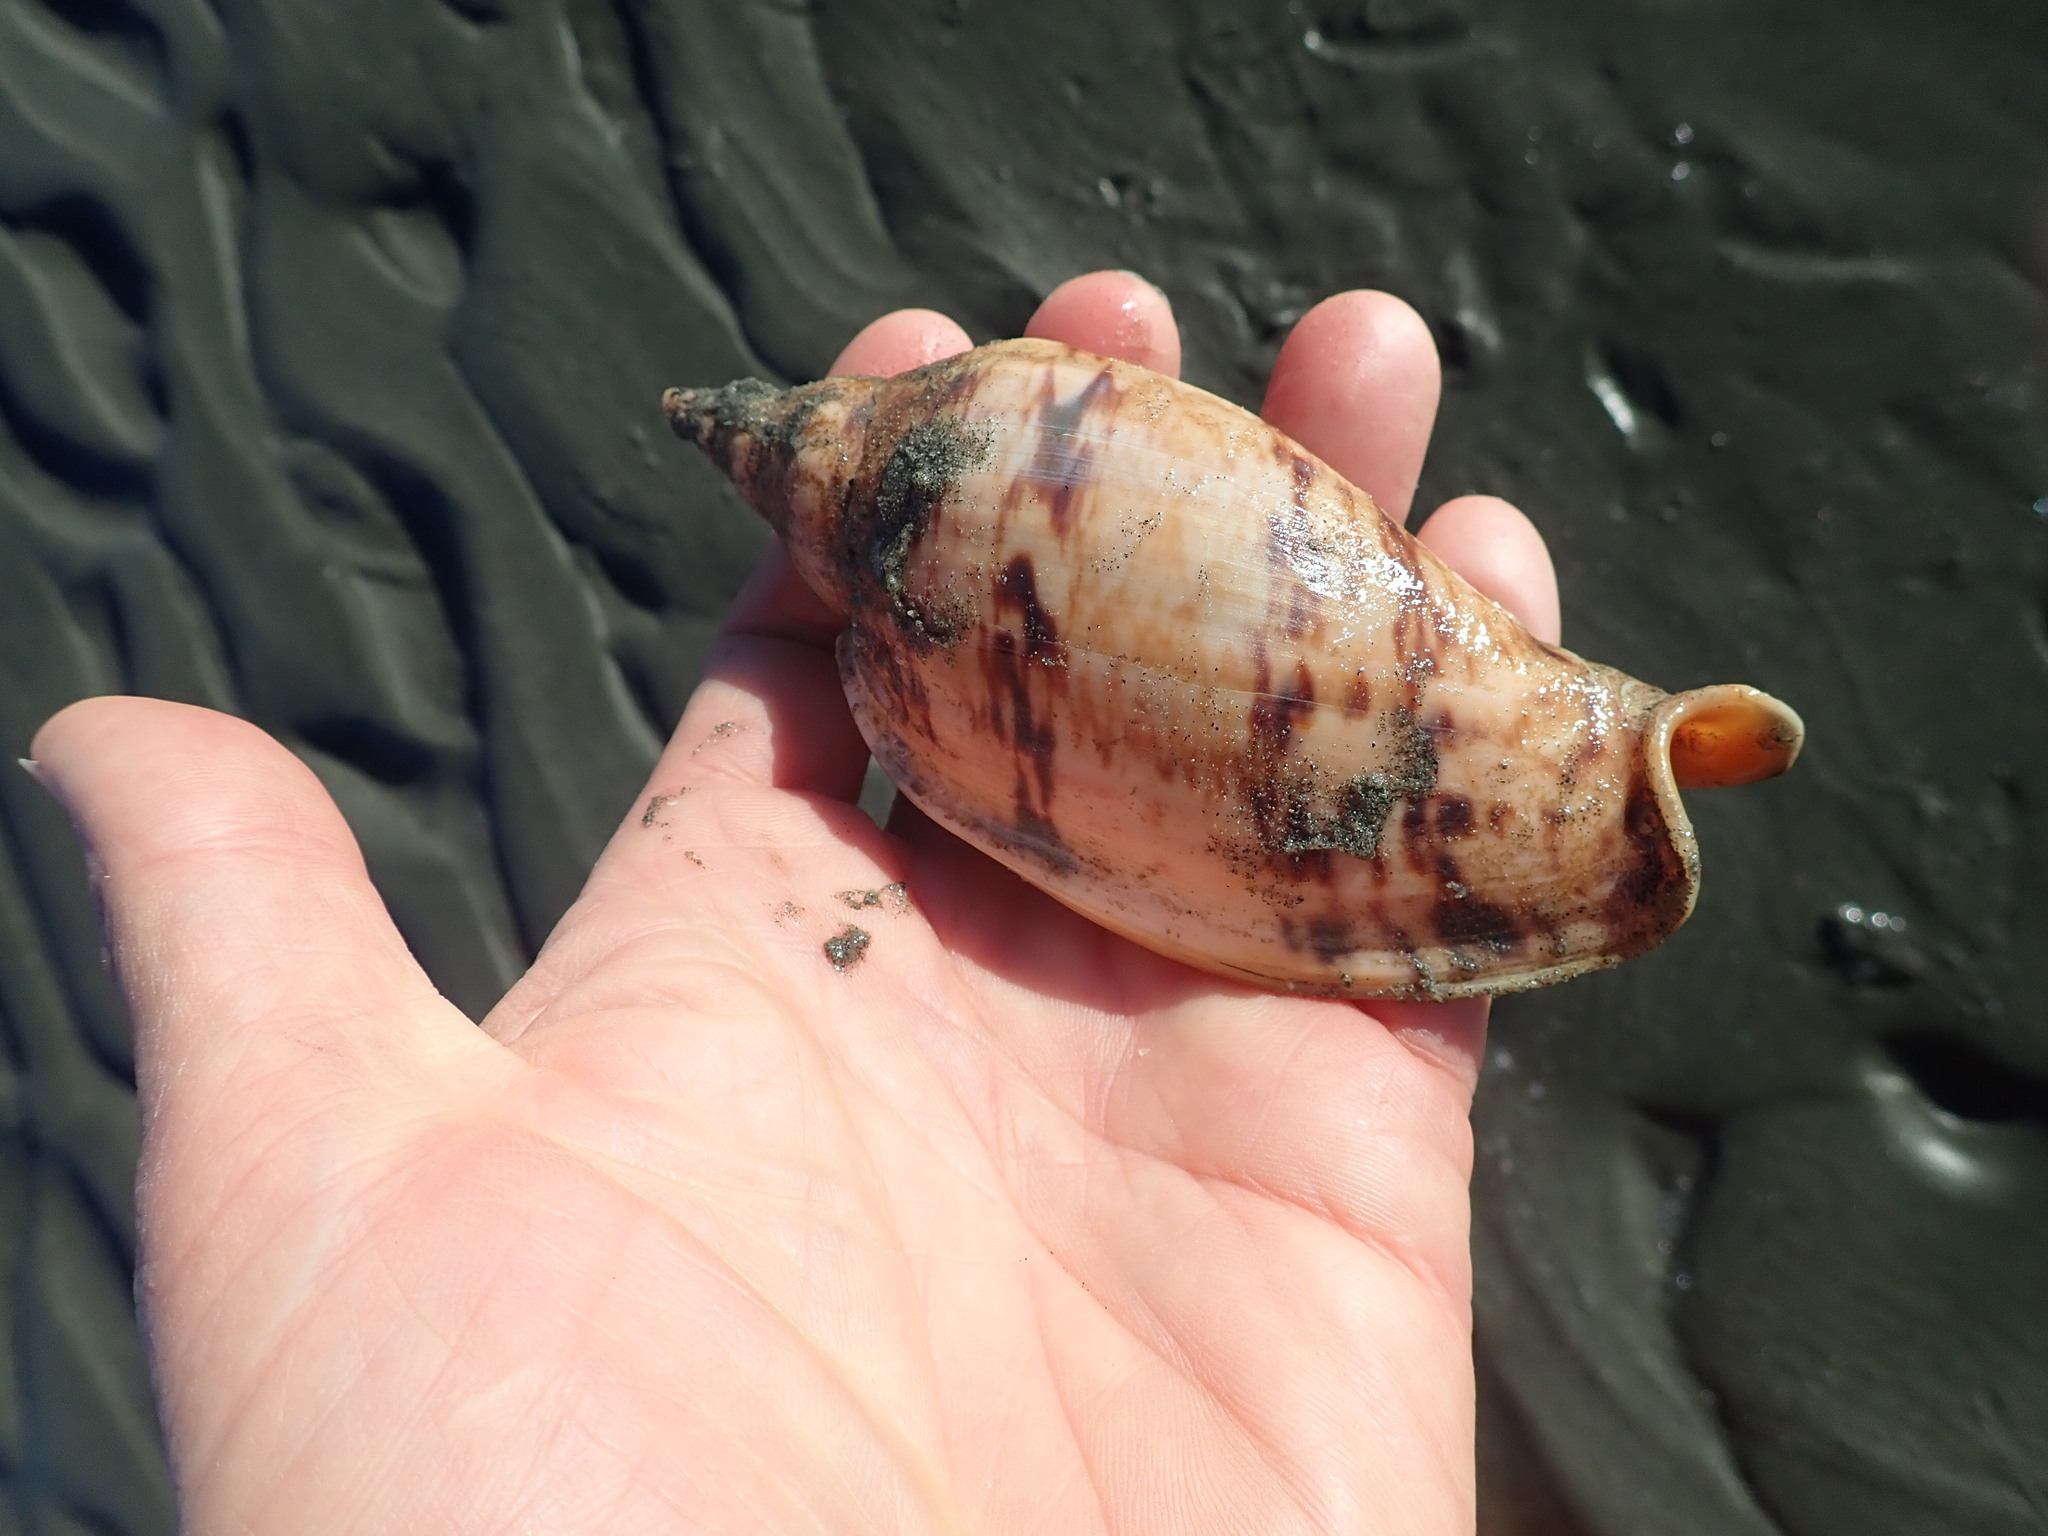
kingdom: Animalia
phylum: Mollusca
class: Gastropoda
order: Neogastropoda
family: Volutidae
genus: Alcithoe
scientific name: Alcithoe arabica
